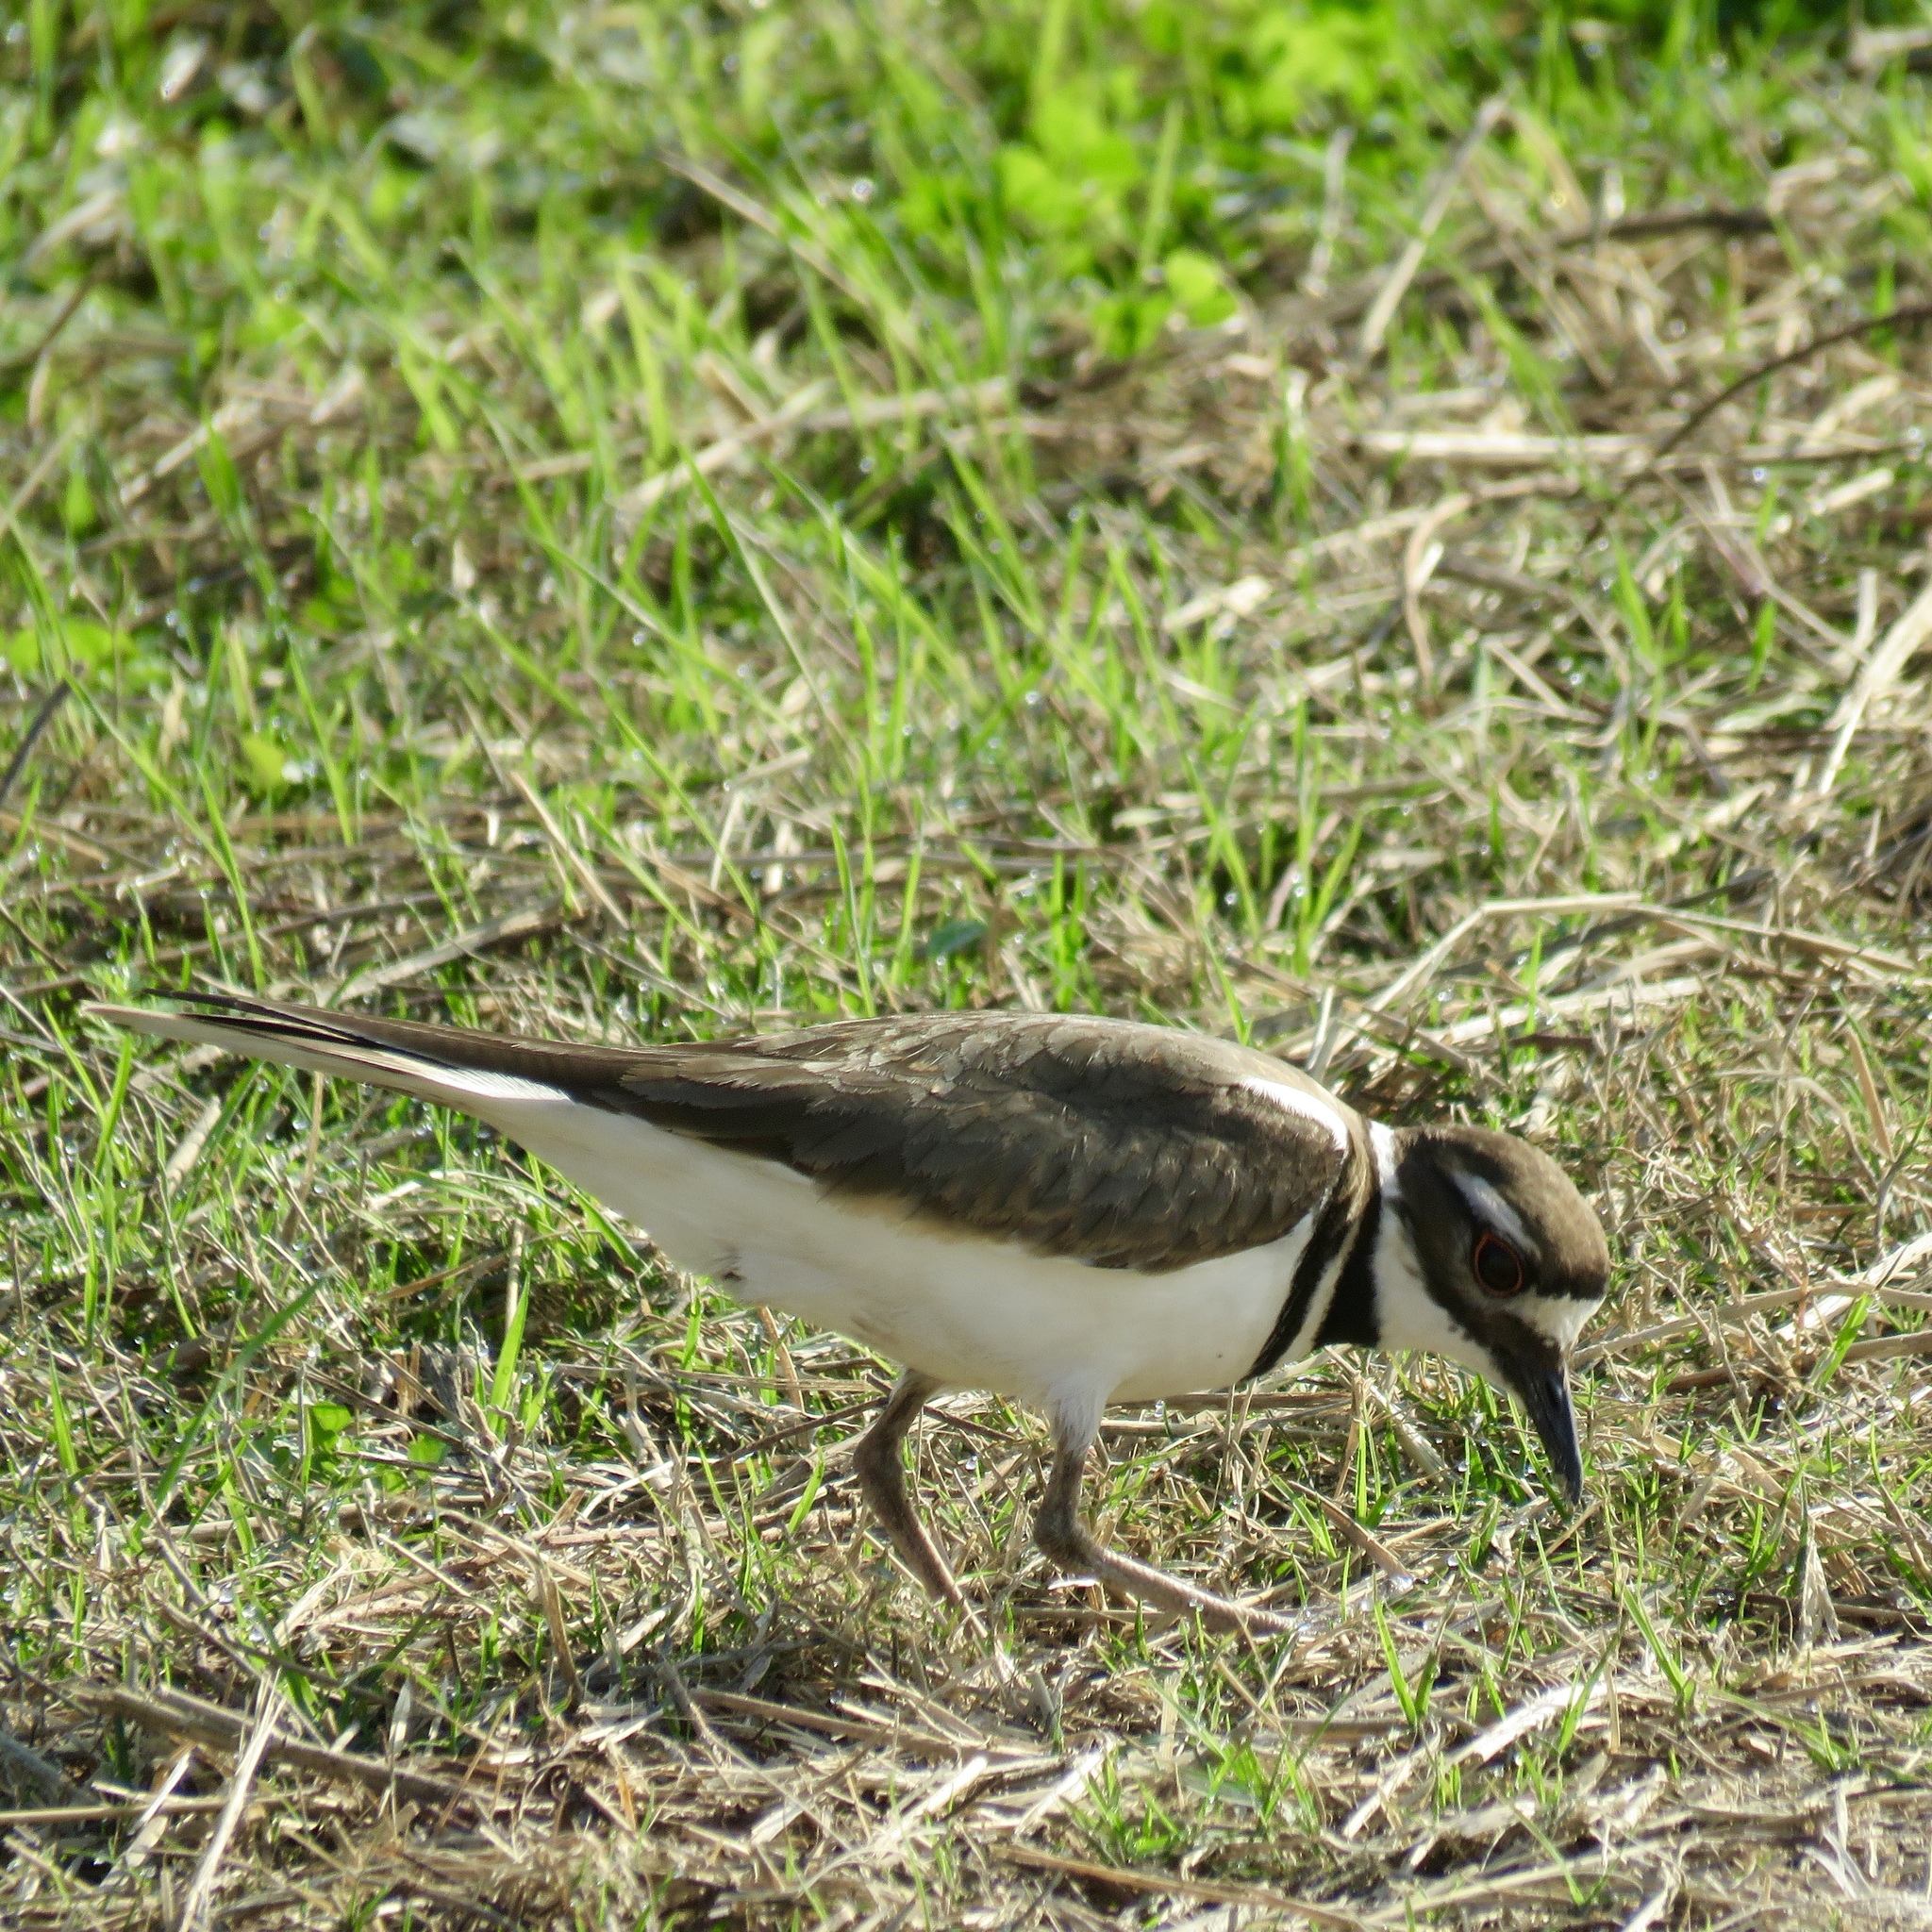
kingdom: Animalia
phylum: Chordata
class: Aves
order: Charadriiformes
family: Charadriidae
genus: Charadrius
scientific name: Charadrius vociferus
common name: Killdeer
